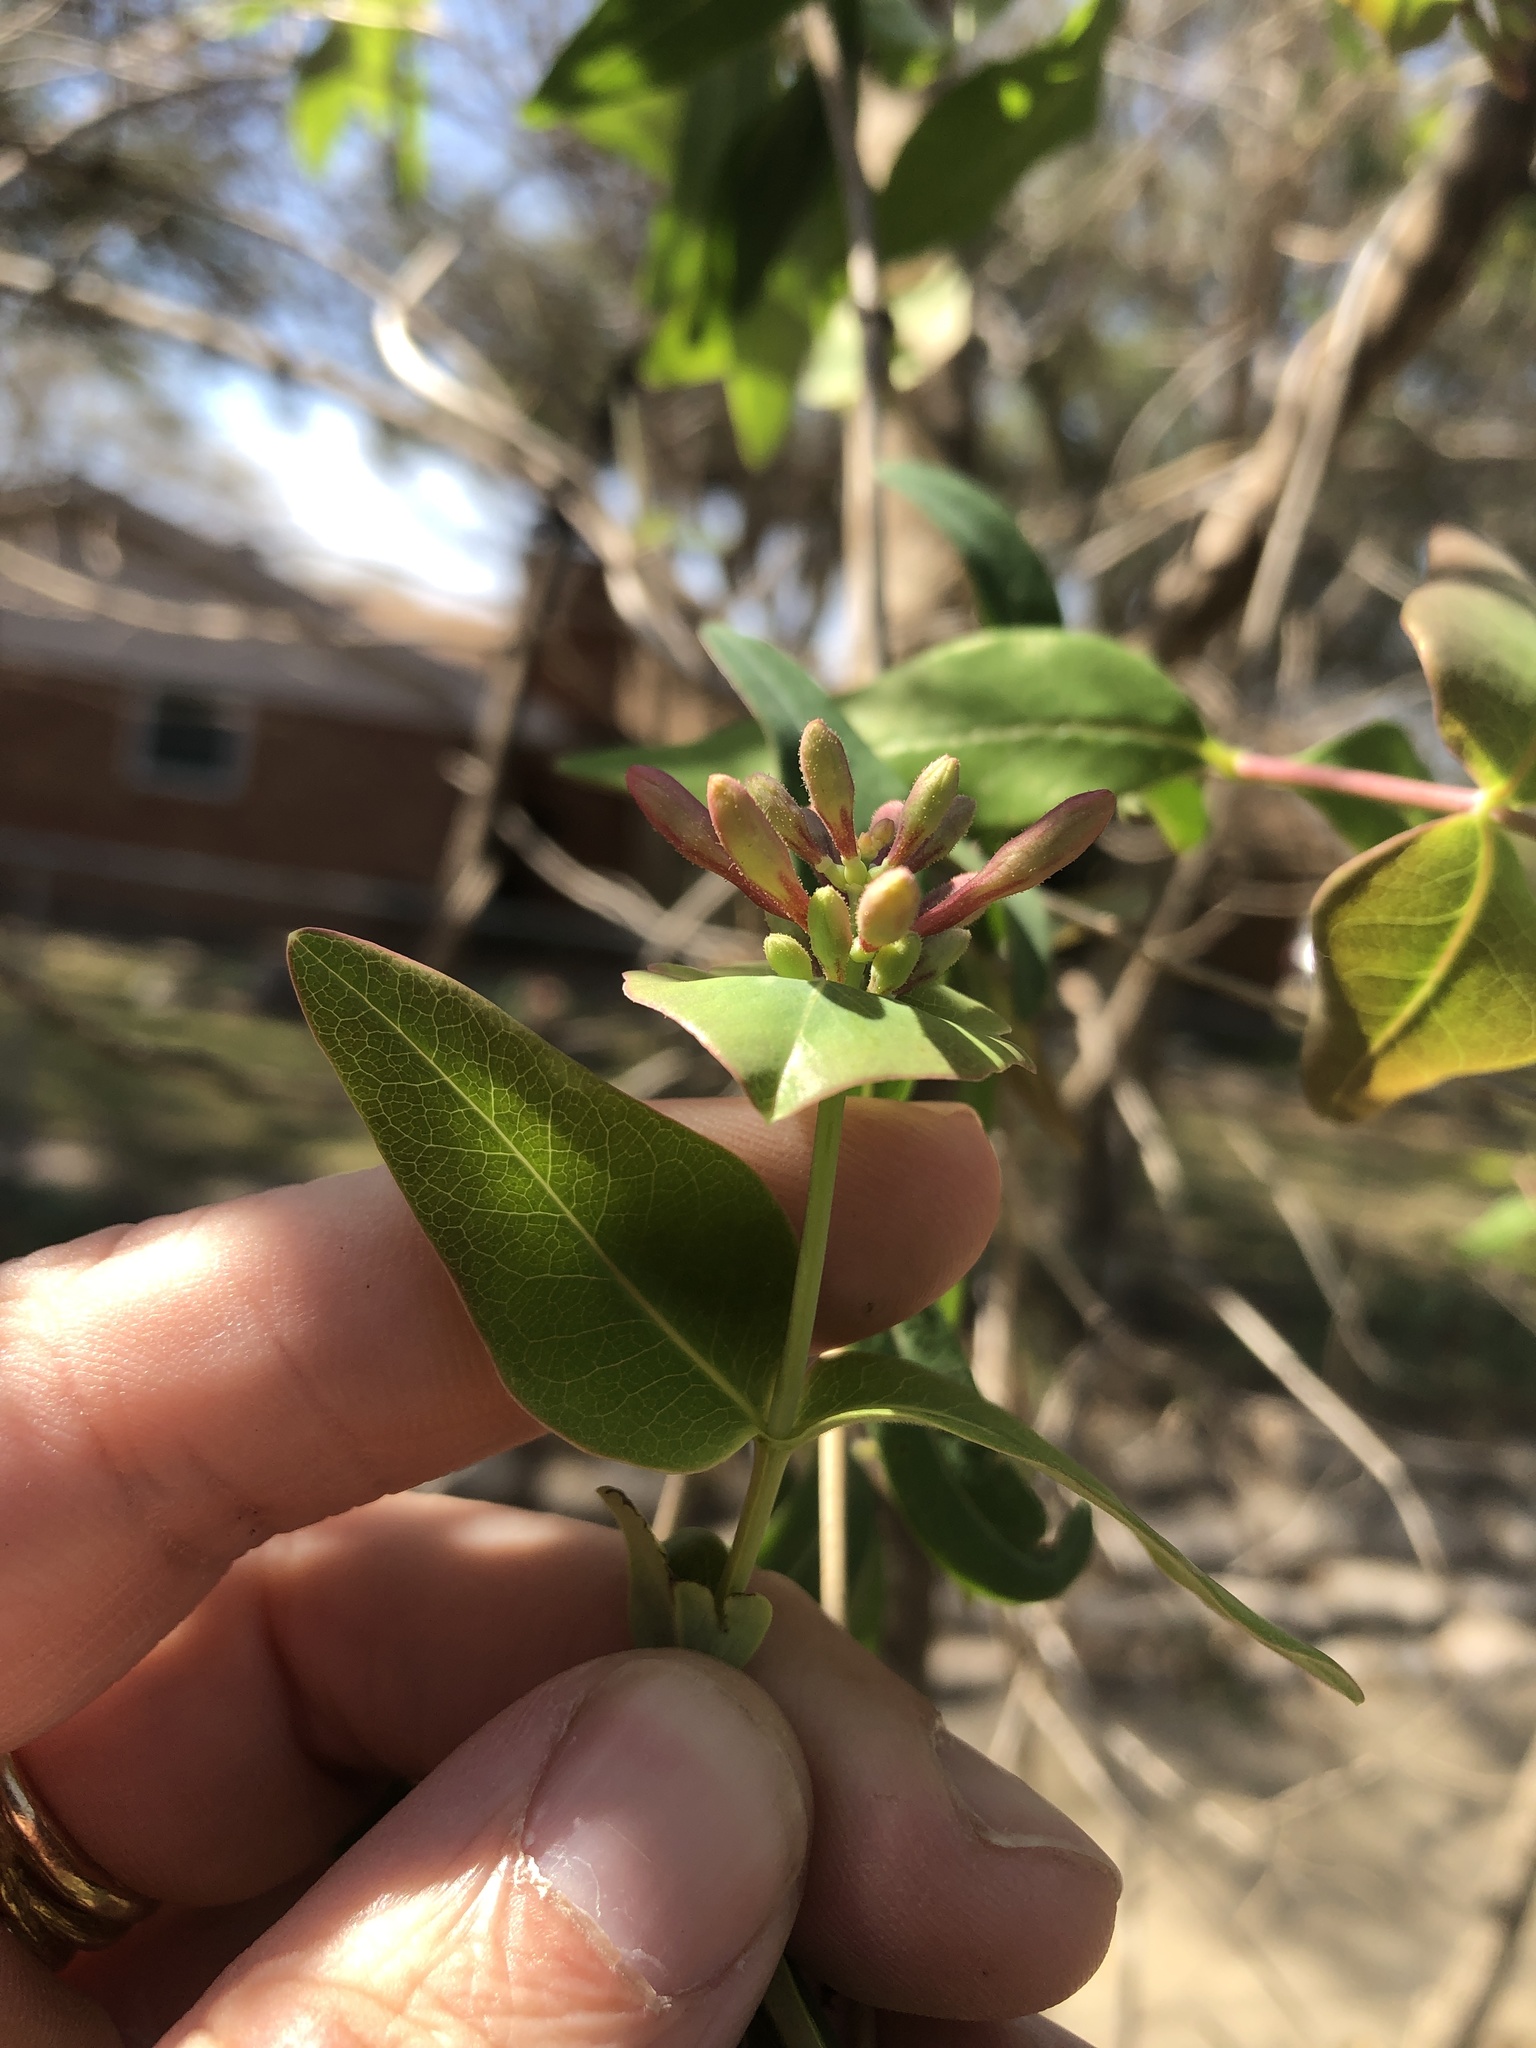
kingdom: Plantae
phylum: Tracheophyta
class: Magnoliopsida
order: Dipsacales
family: Caprifoliaceae
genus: Lonicera
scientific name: Lonicera sempervirens
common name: Coral honeysuckle
